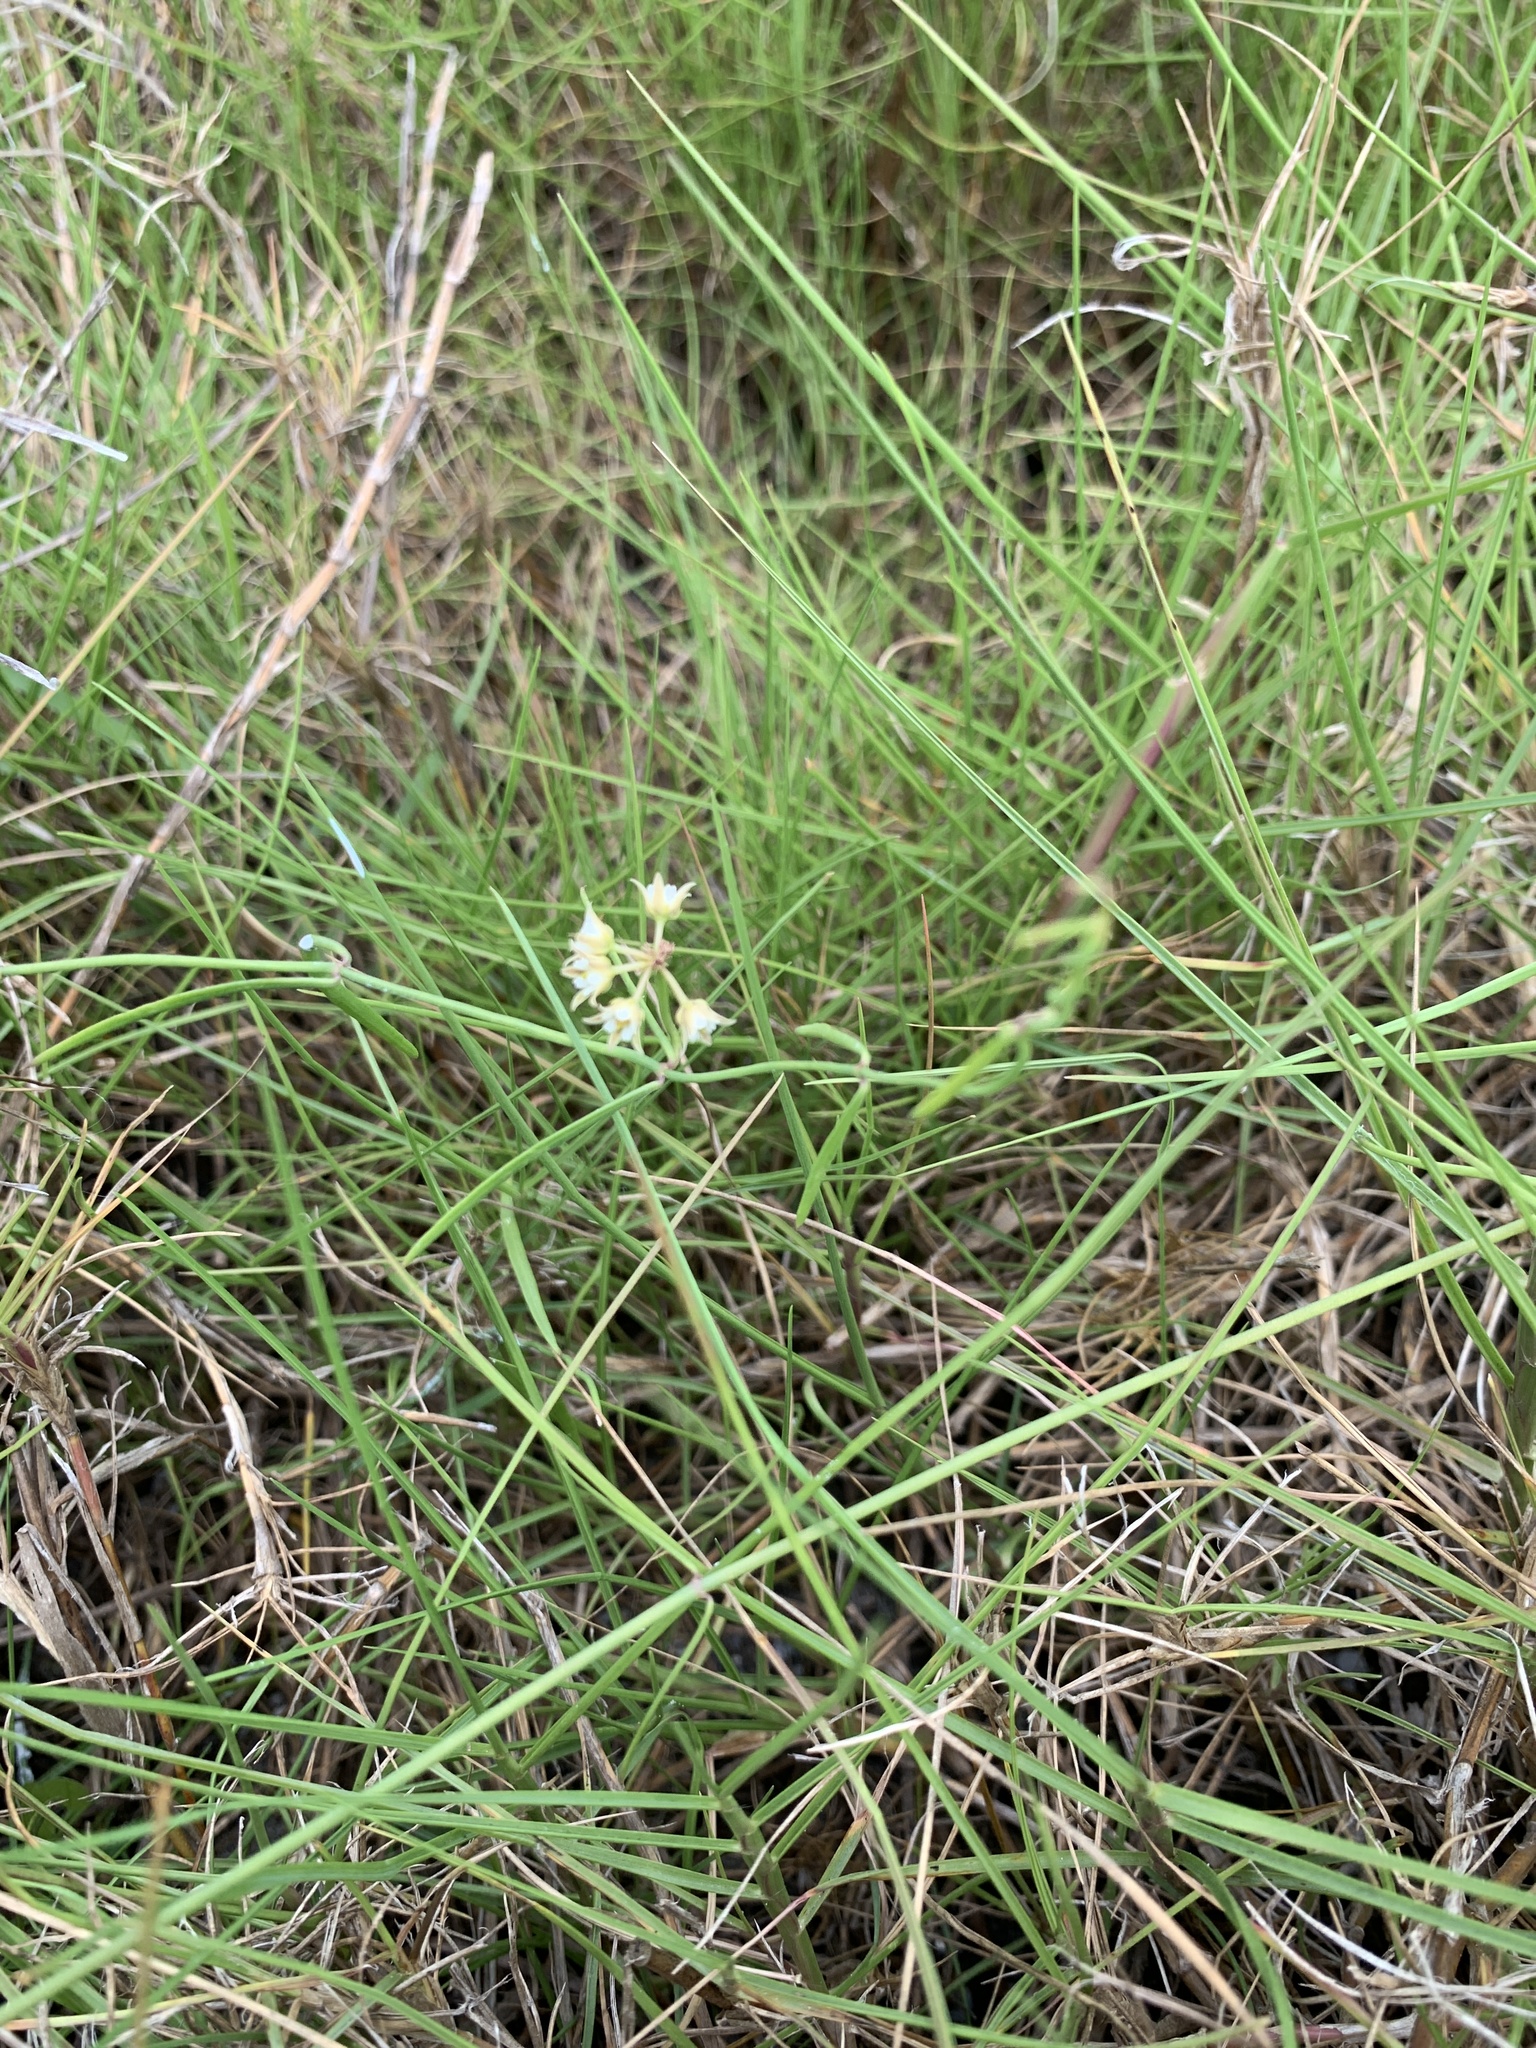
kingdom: Plantae
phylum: Tracheophyta
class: Magnoliopsida
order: Gentianales
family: Apocynaceae
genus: Pattalias
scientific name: Pattalias
